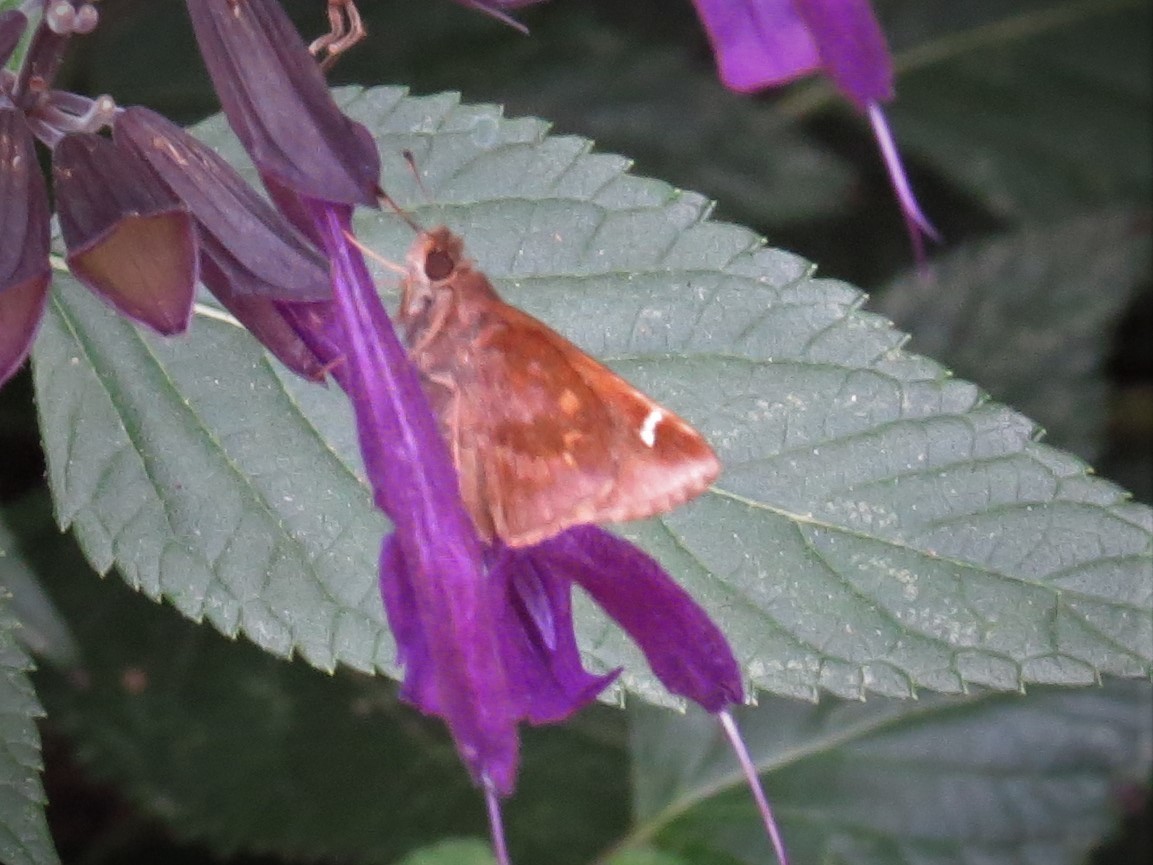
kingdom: Animalia
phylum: Arthropoda
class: Insecta
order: Lepidoptera
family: Hesperiidae
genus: Lerema
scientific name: Lerema accius
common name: Clouded skipper
